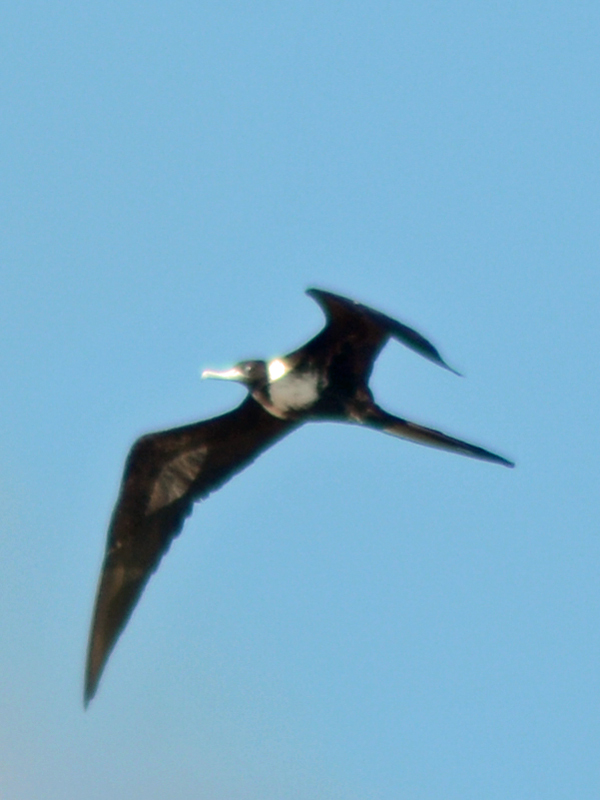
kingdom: Animalia
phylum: Chordata
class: Aves
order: Suliformes
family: Fregatidae
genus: Fregata
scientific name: Fregata magnificens
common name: Magnificent frigatebird
